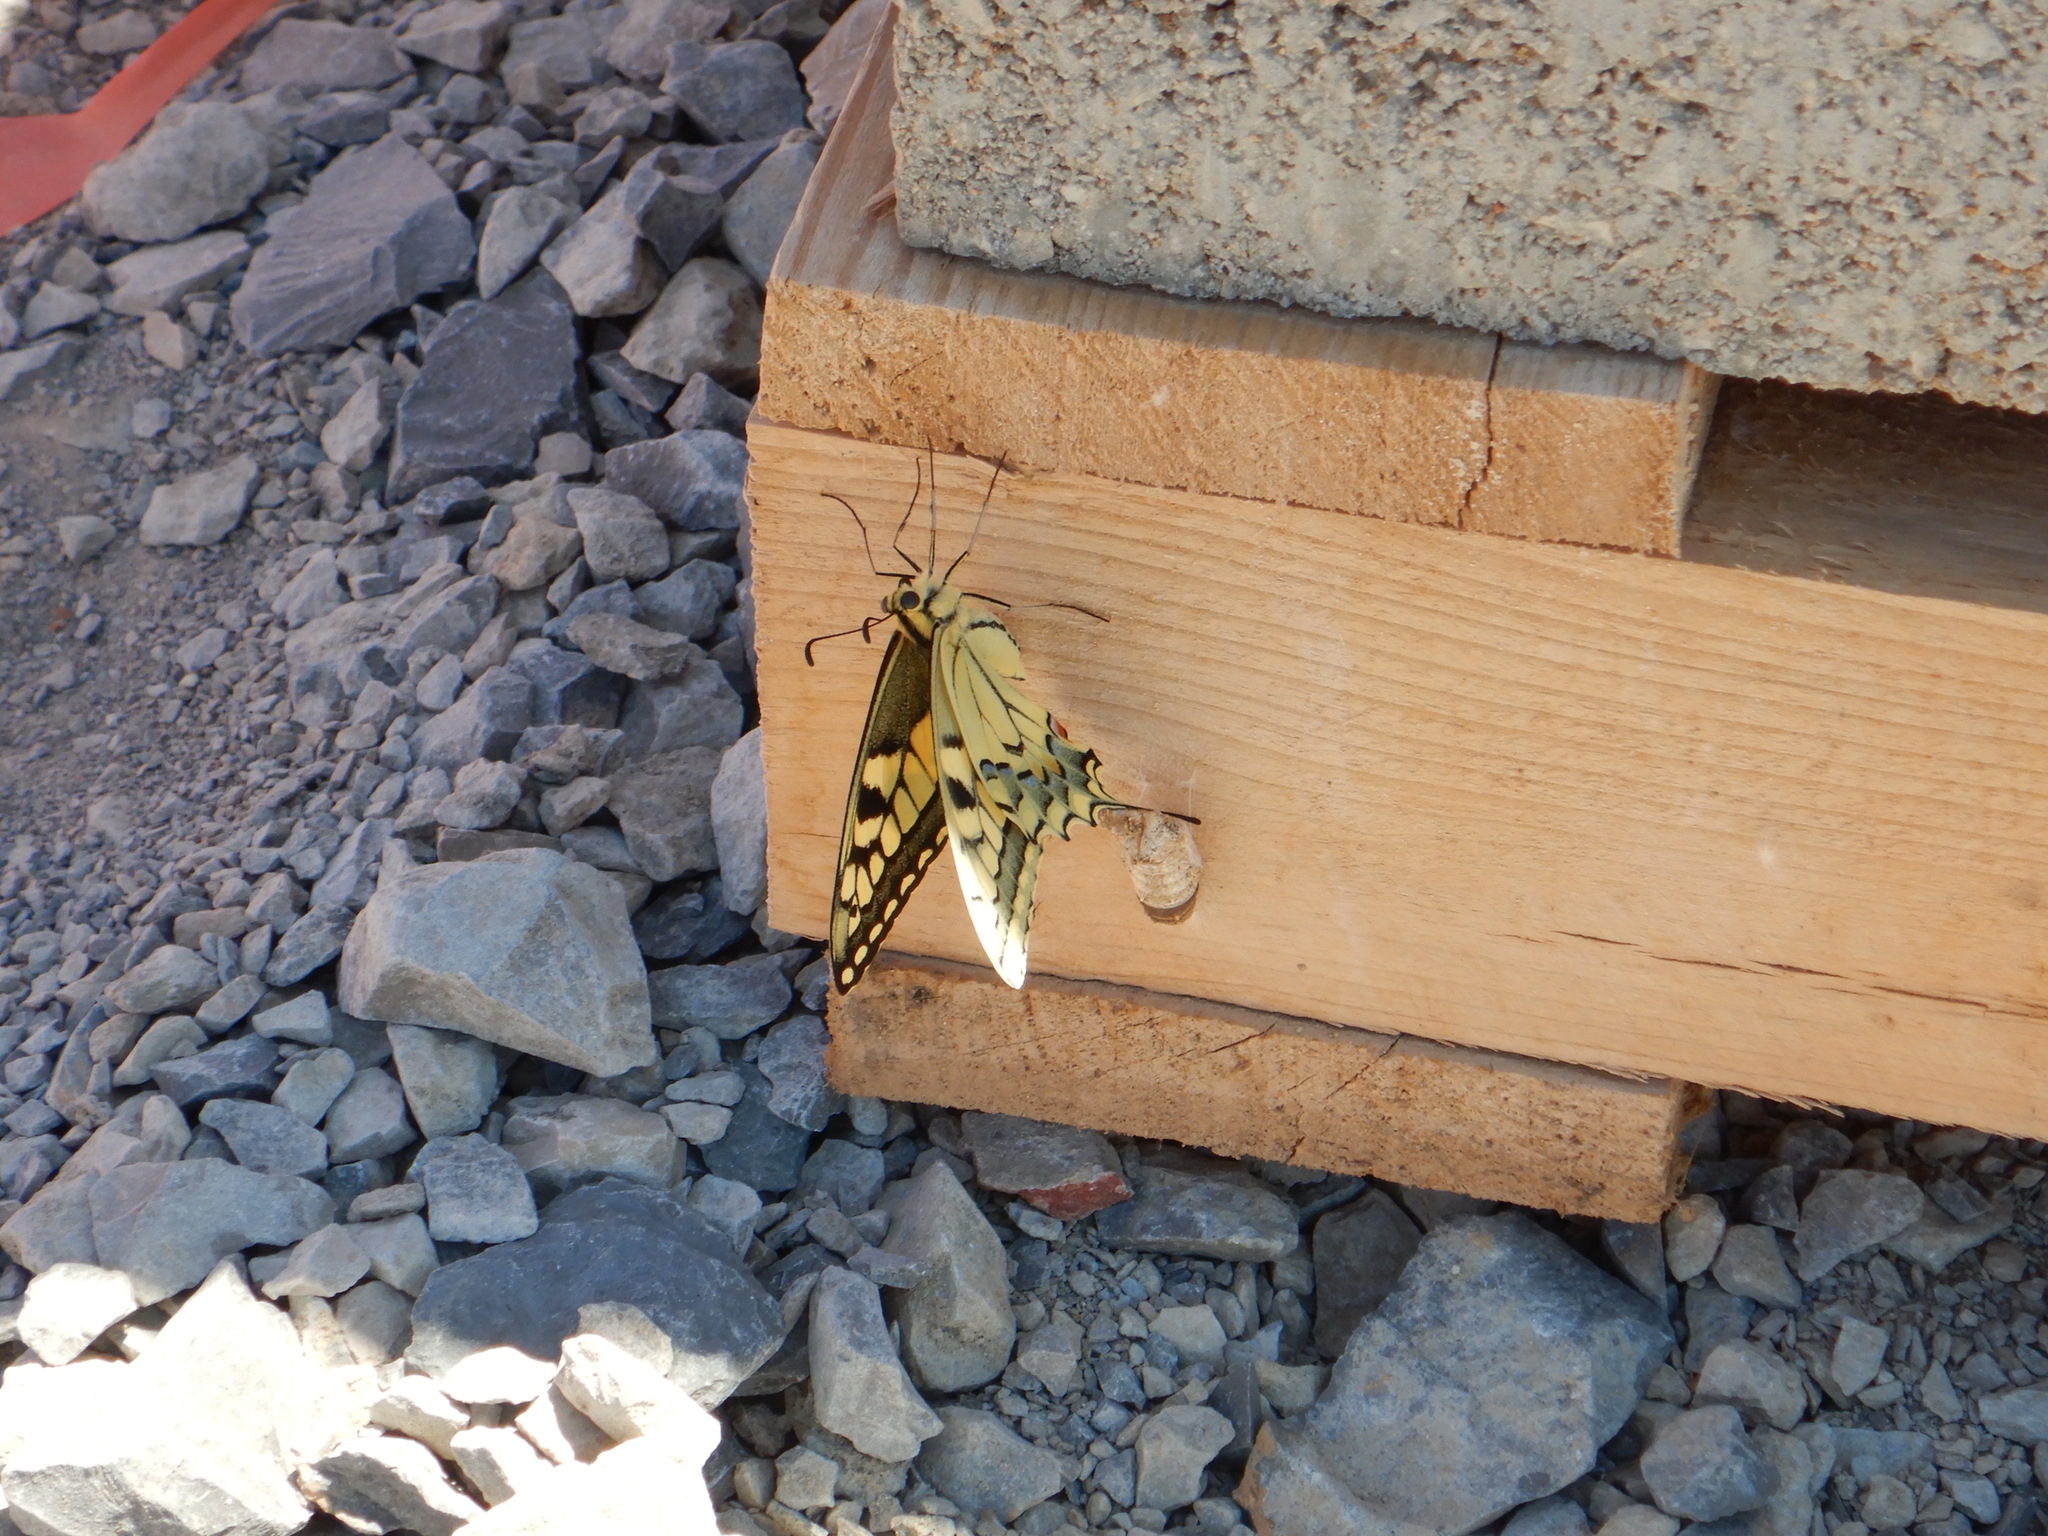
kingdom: Animalia
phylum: Arthropoda
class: Insecta
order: Lepidoptera
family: Papilionidae
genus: Papilio
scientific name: Papilio machaon
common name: Swallowtail
